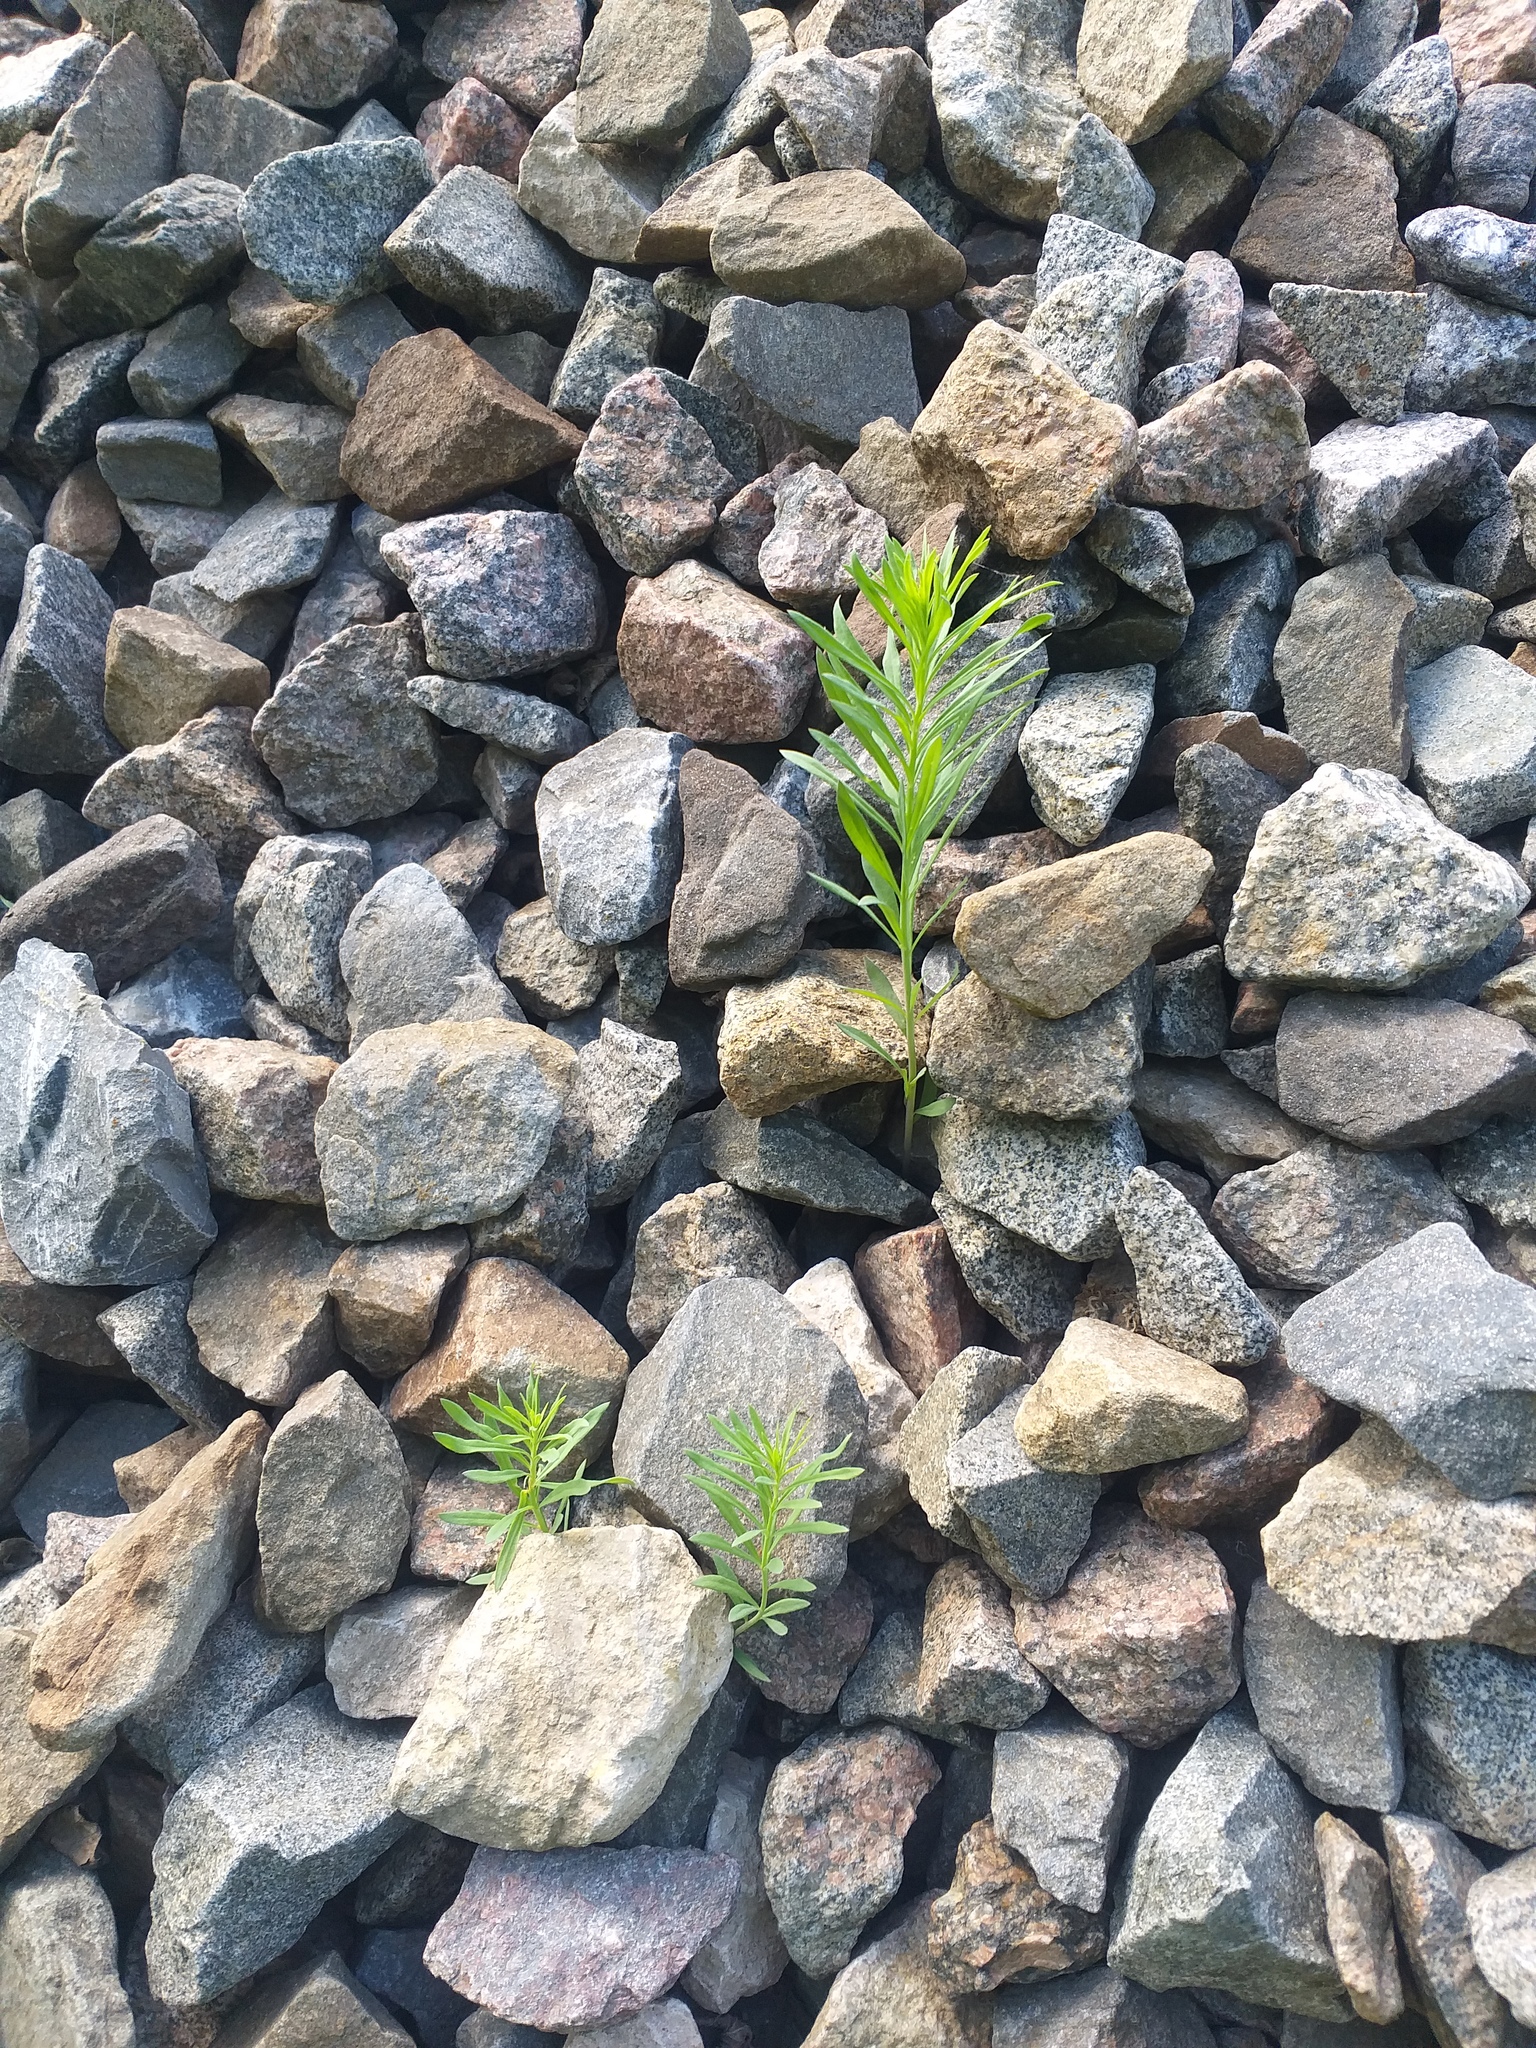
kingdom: Plantae
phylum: Tracheophyta
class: Magnoliopsida
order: Lamiales
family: Plantaginaceae
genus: Linaria
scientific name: Linaria vulgaris
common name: Butter and eggs
